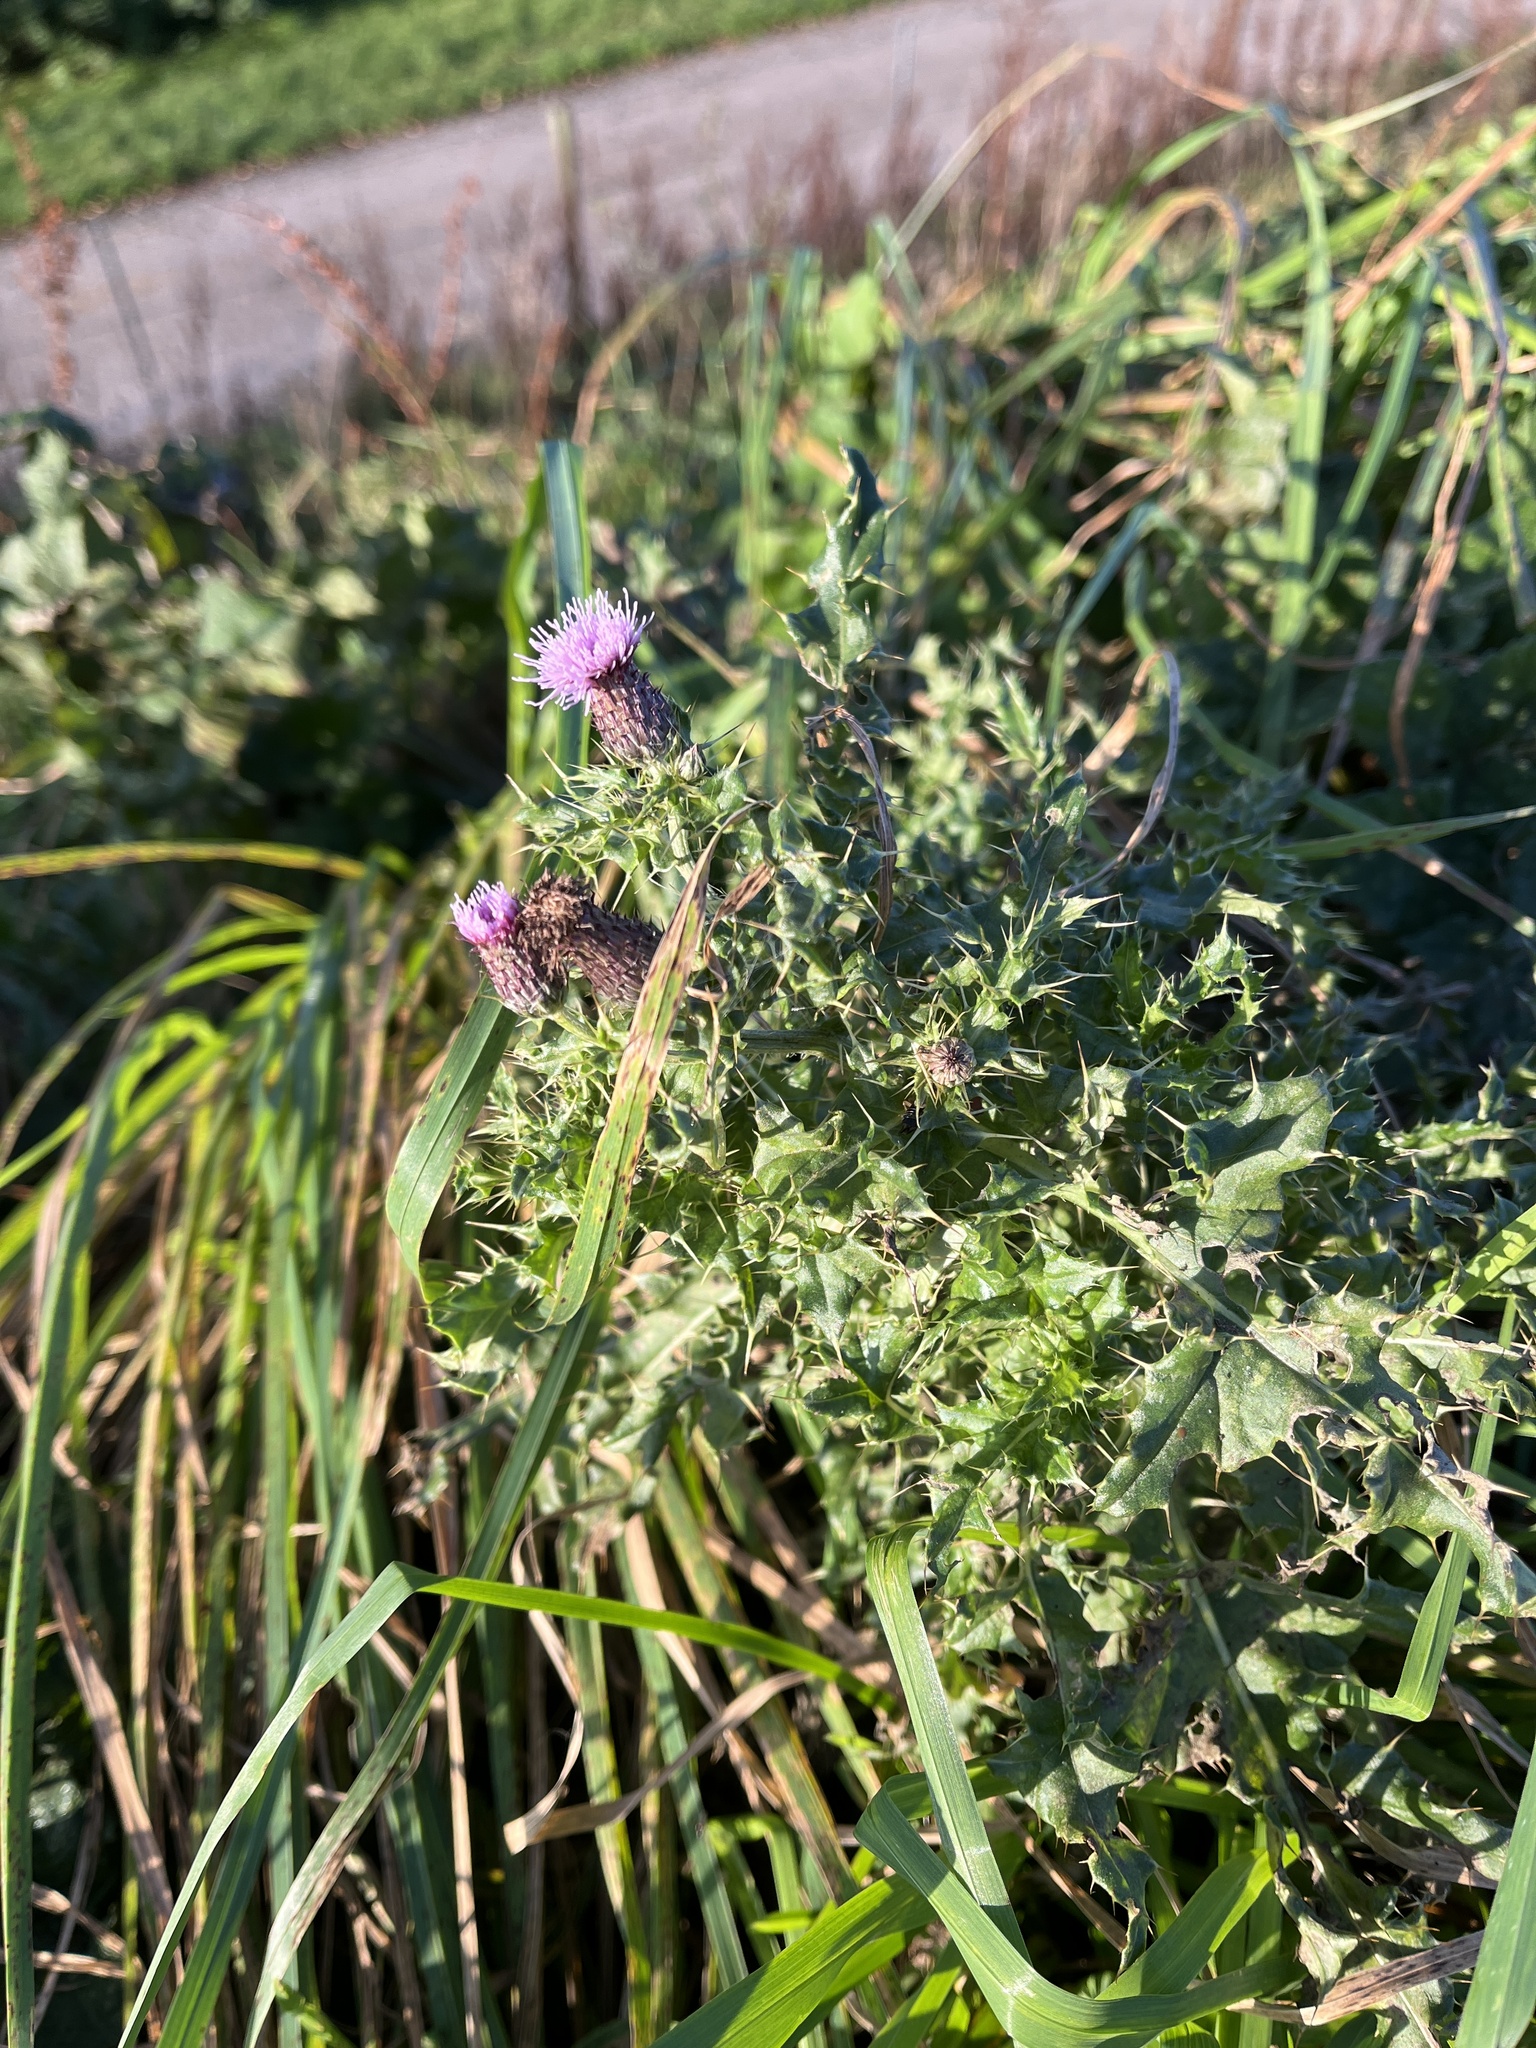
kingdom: Plantae
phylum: Tracheophyta
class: Magnoliopsida
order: Asterales
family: Asteraceae
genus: Cirsium
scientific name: Cirsium arvense
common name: Creeping thistle
